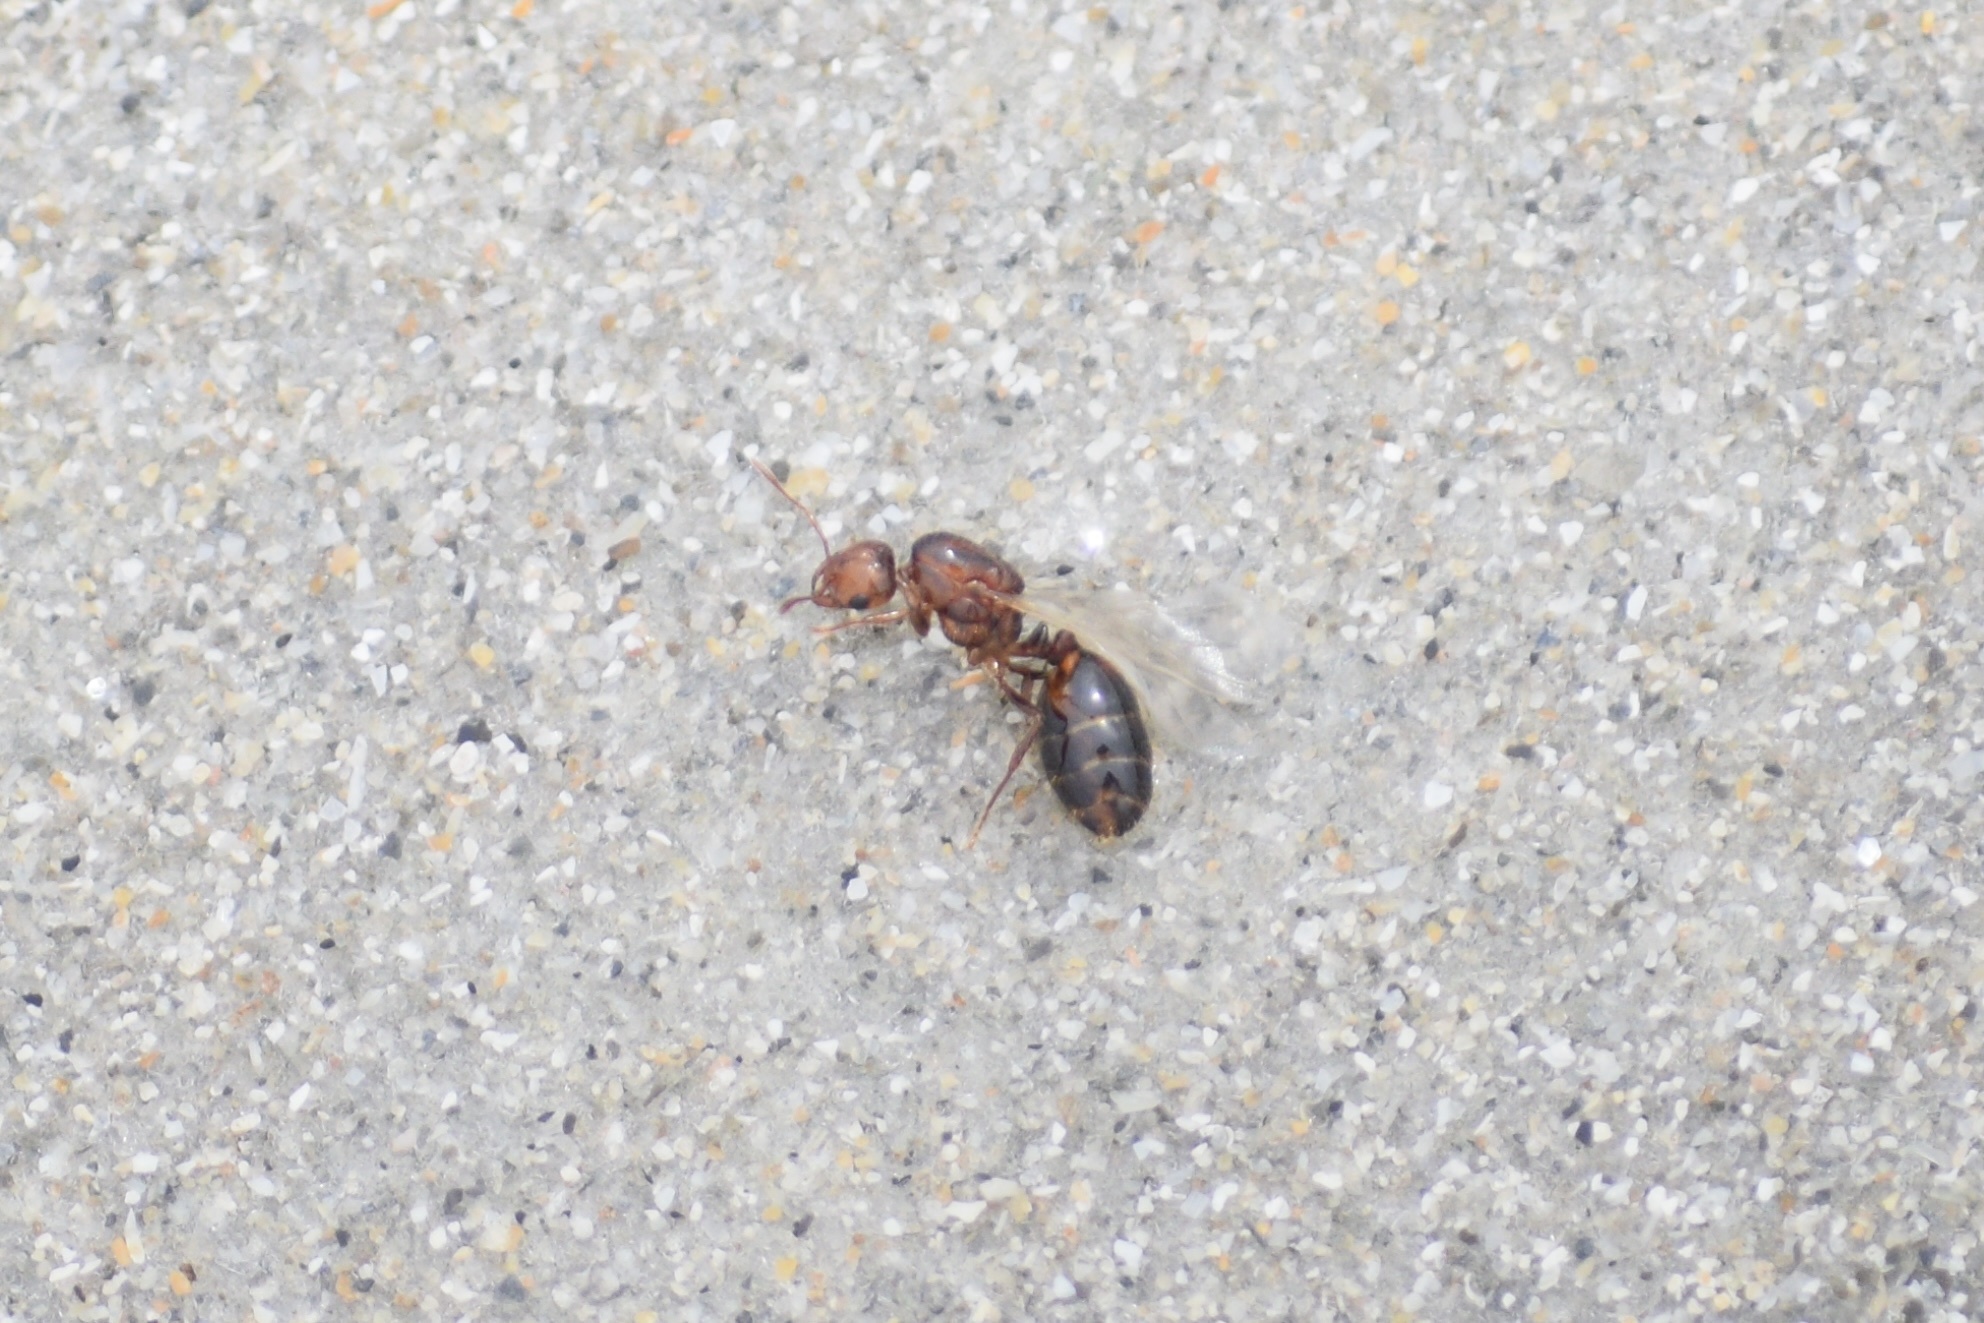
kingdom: Animalia
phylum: Arthropoda
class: Insecta
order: Hymenoptera
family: Formicidae
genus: Solenopsis
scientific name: Solenopsis invicta
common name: Red imported fire ant
